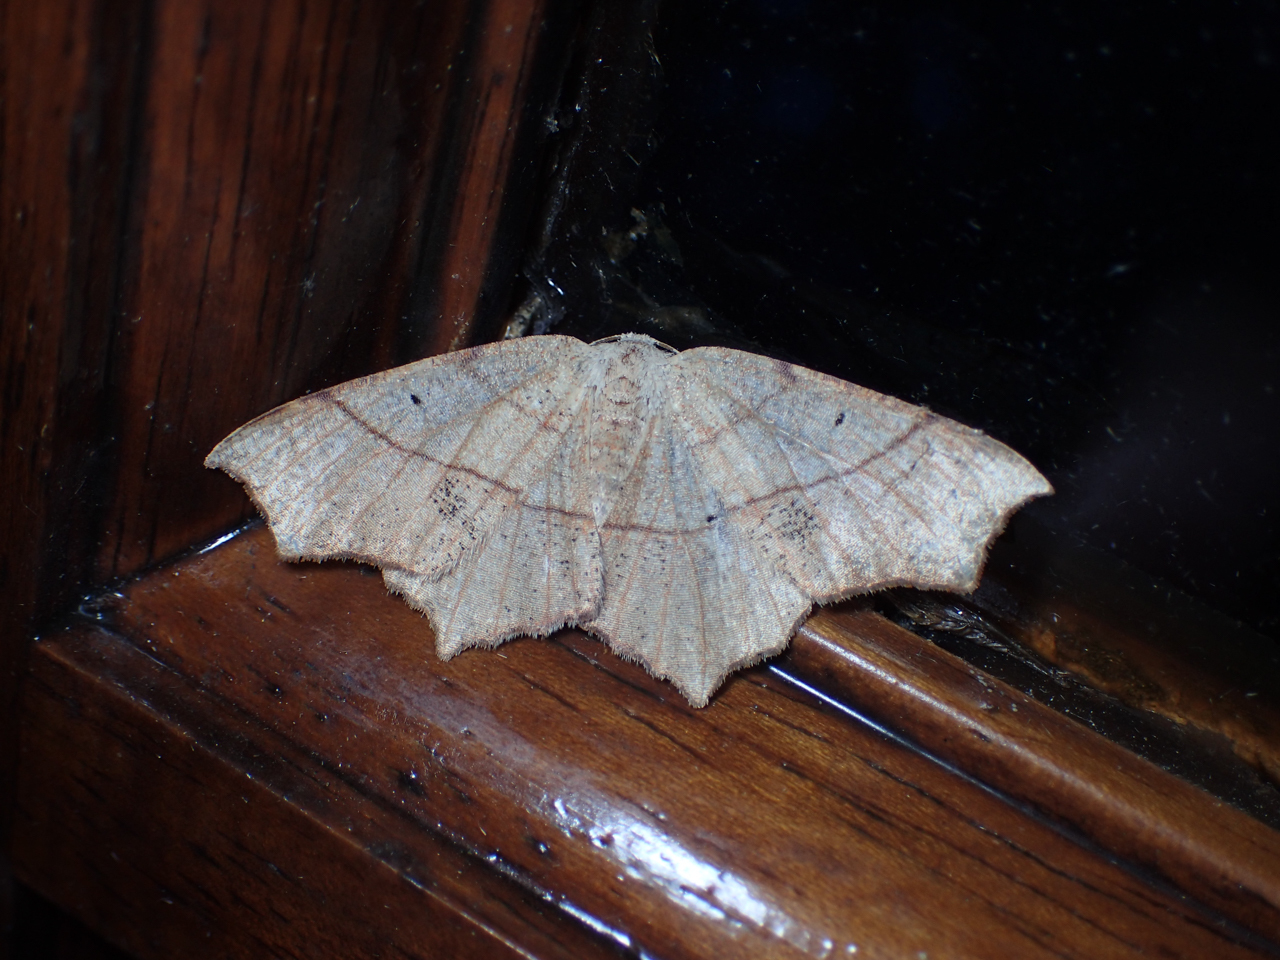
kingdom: Animalia
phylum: Arthropoda
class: Insecta
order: Lepidoptera
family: Geometridae
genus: Besma
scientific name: Besma quercivoraria
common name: Oak besma
